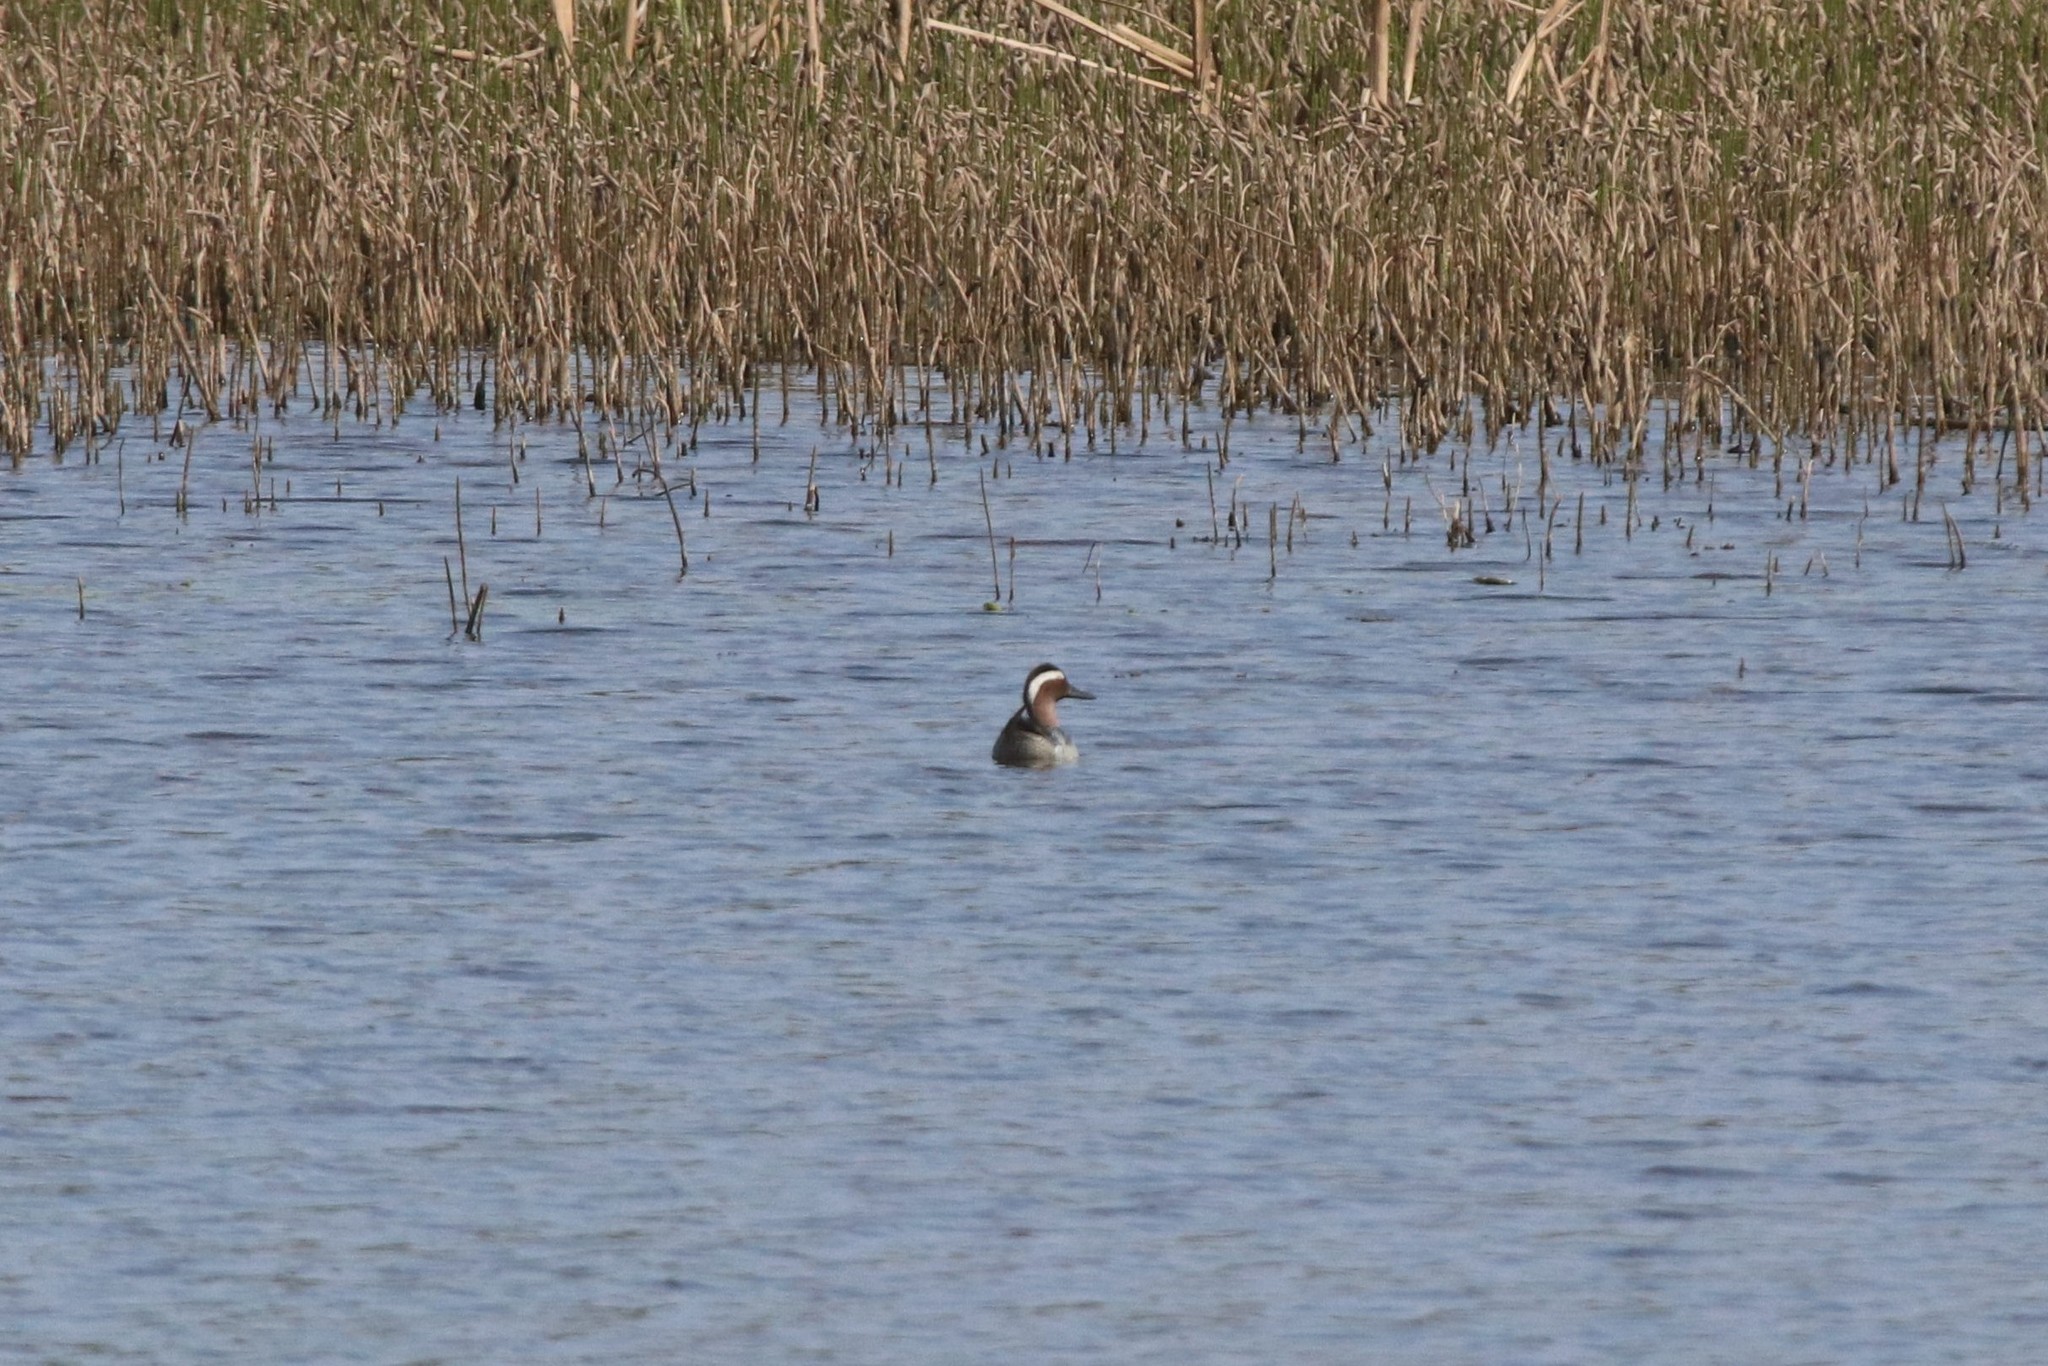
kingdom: Animalia
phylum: Chordata
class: Aves
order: Anseriformes
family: Anatidae
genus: Spatula
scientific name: Spatula querquedula
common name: Garganey
